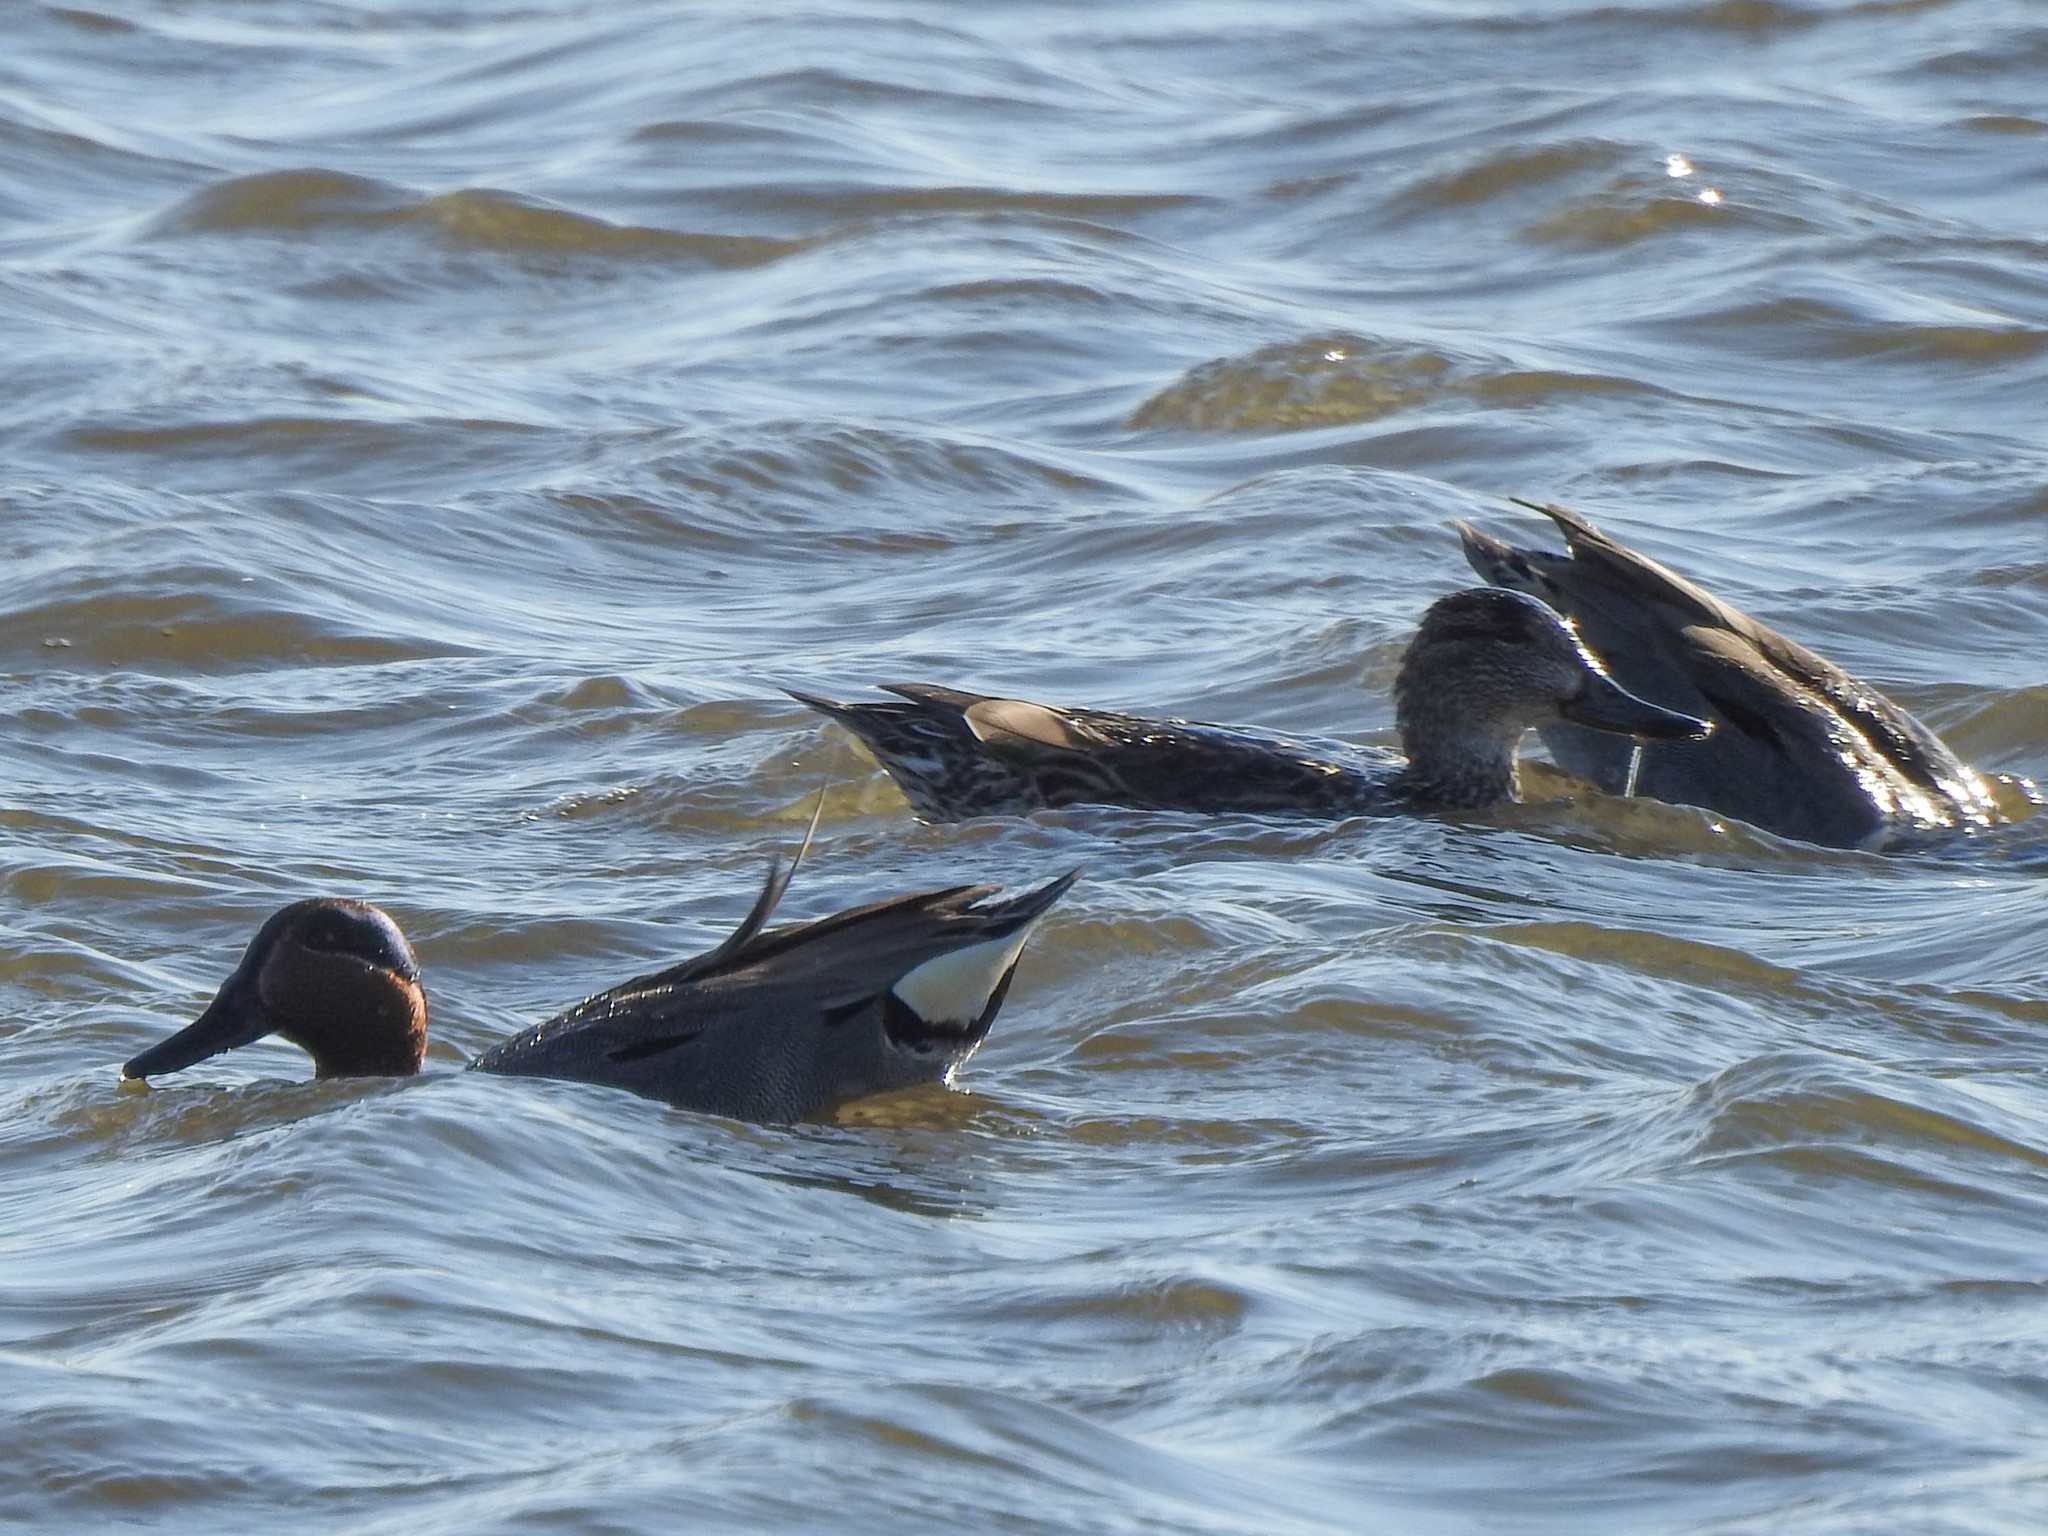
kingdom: Animalia
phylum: Chordata
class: Aves
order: Anseriformes
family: Anatidae
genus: Anas
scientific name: Anas crecca
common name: Eurasian teal
